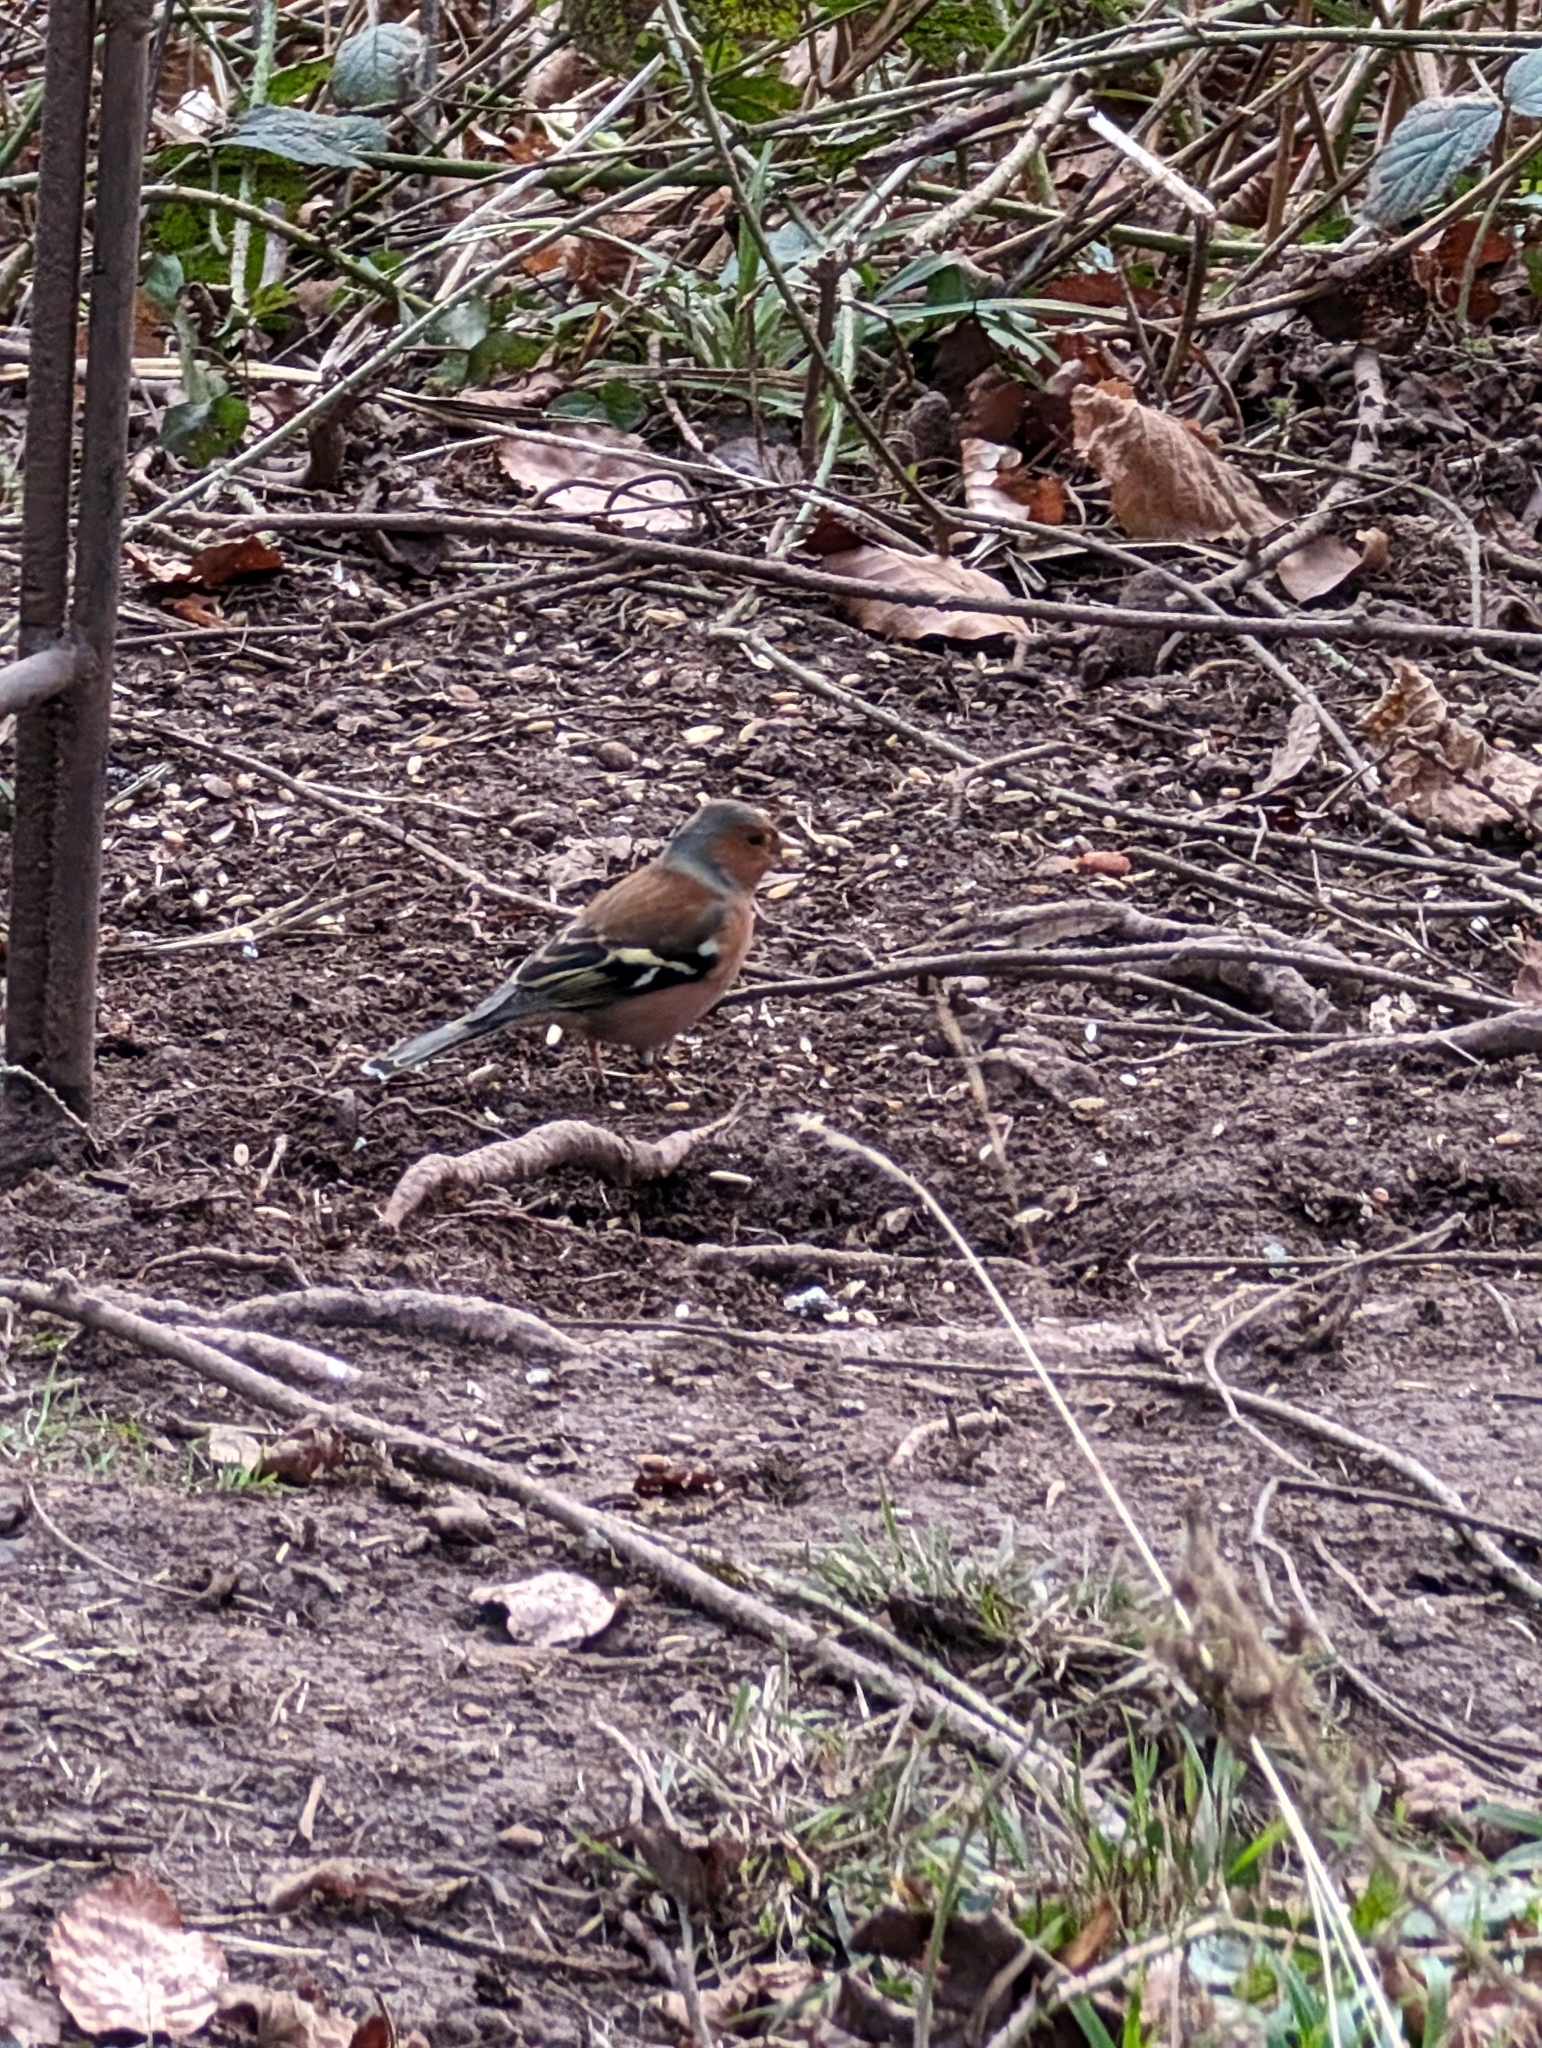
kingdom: Animalia
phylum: Chordata
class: Aves
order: Passeriformes
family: Fringillidae
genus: Fringilla
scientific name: Fringilla coelebs
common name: Common chaffinch
